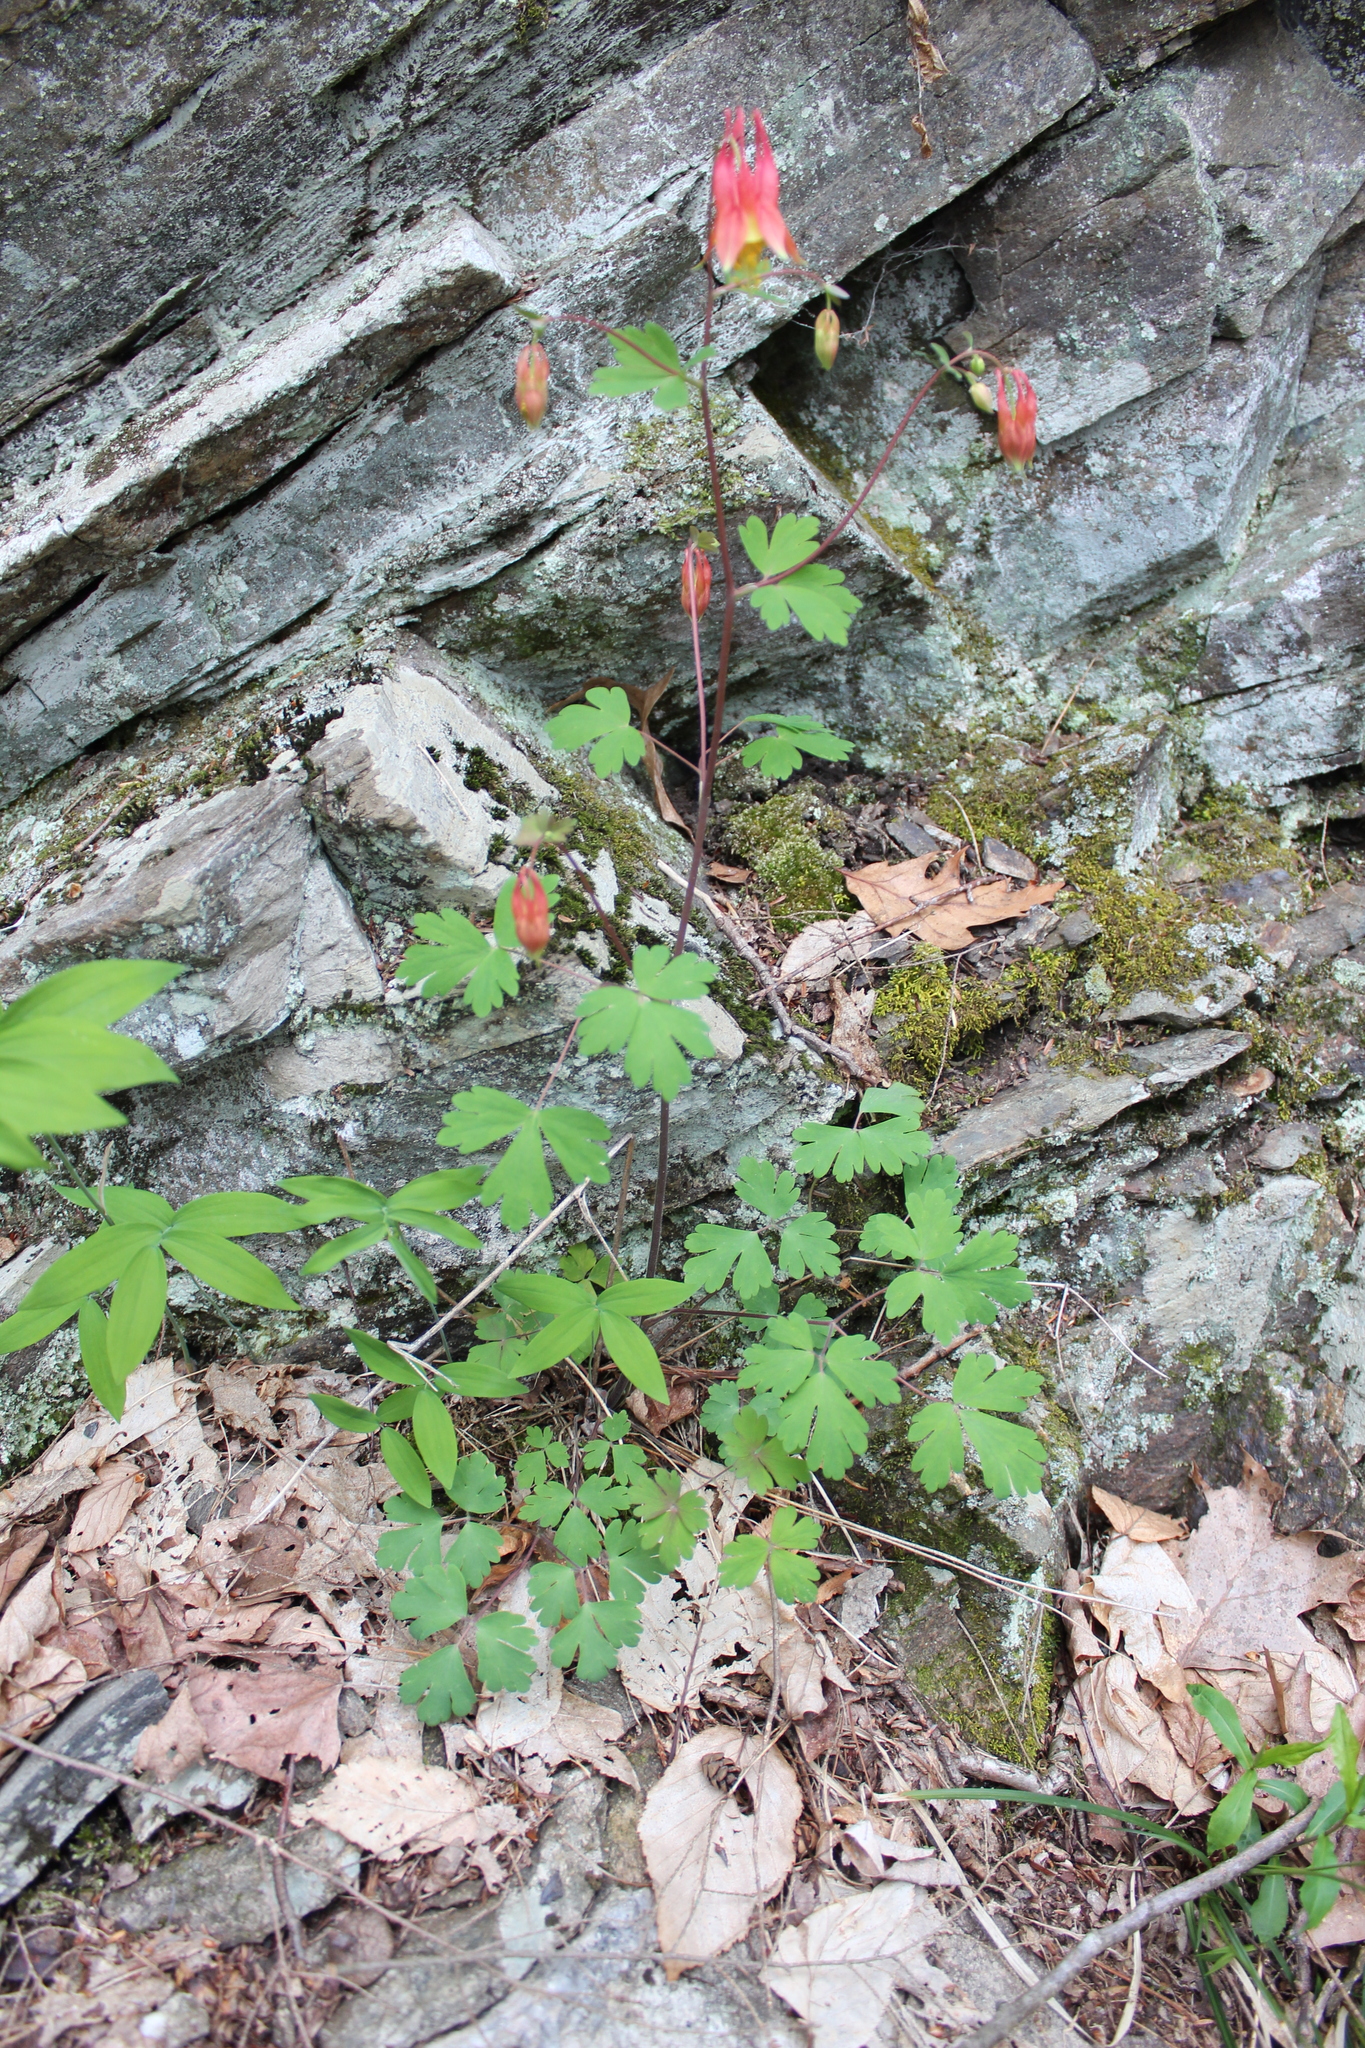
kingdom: Plantae
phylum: Tracheophyta
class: Magnoliopsida
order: Ranunculales
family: Ranunculaceae
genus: Aquilegia
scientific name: Aquilegia canadensis
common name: American columbine
